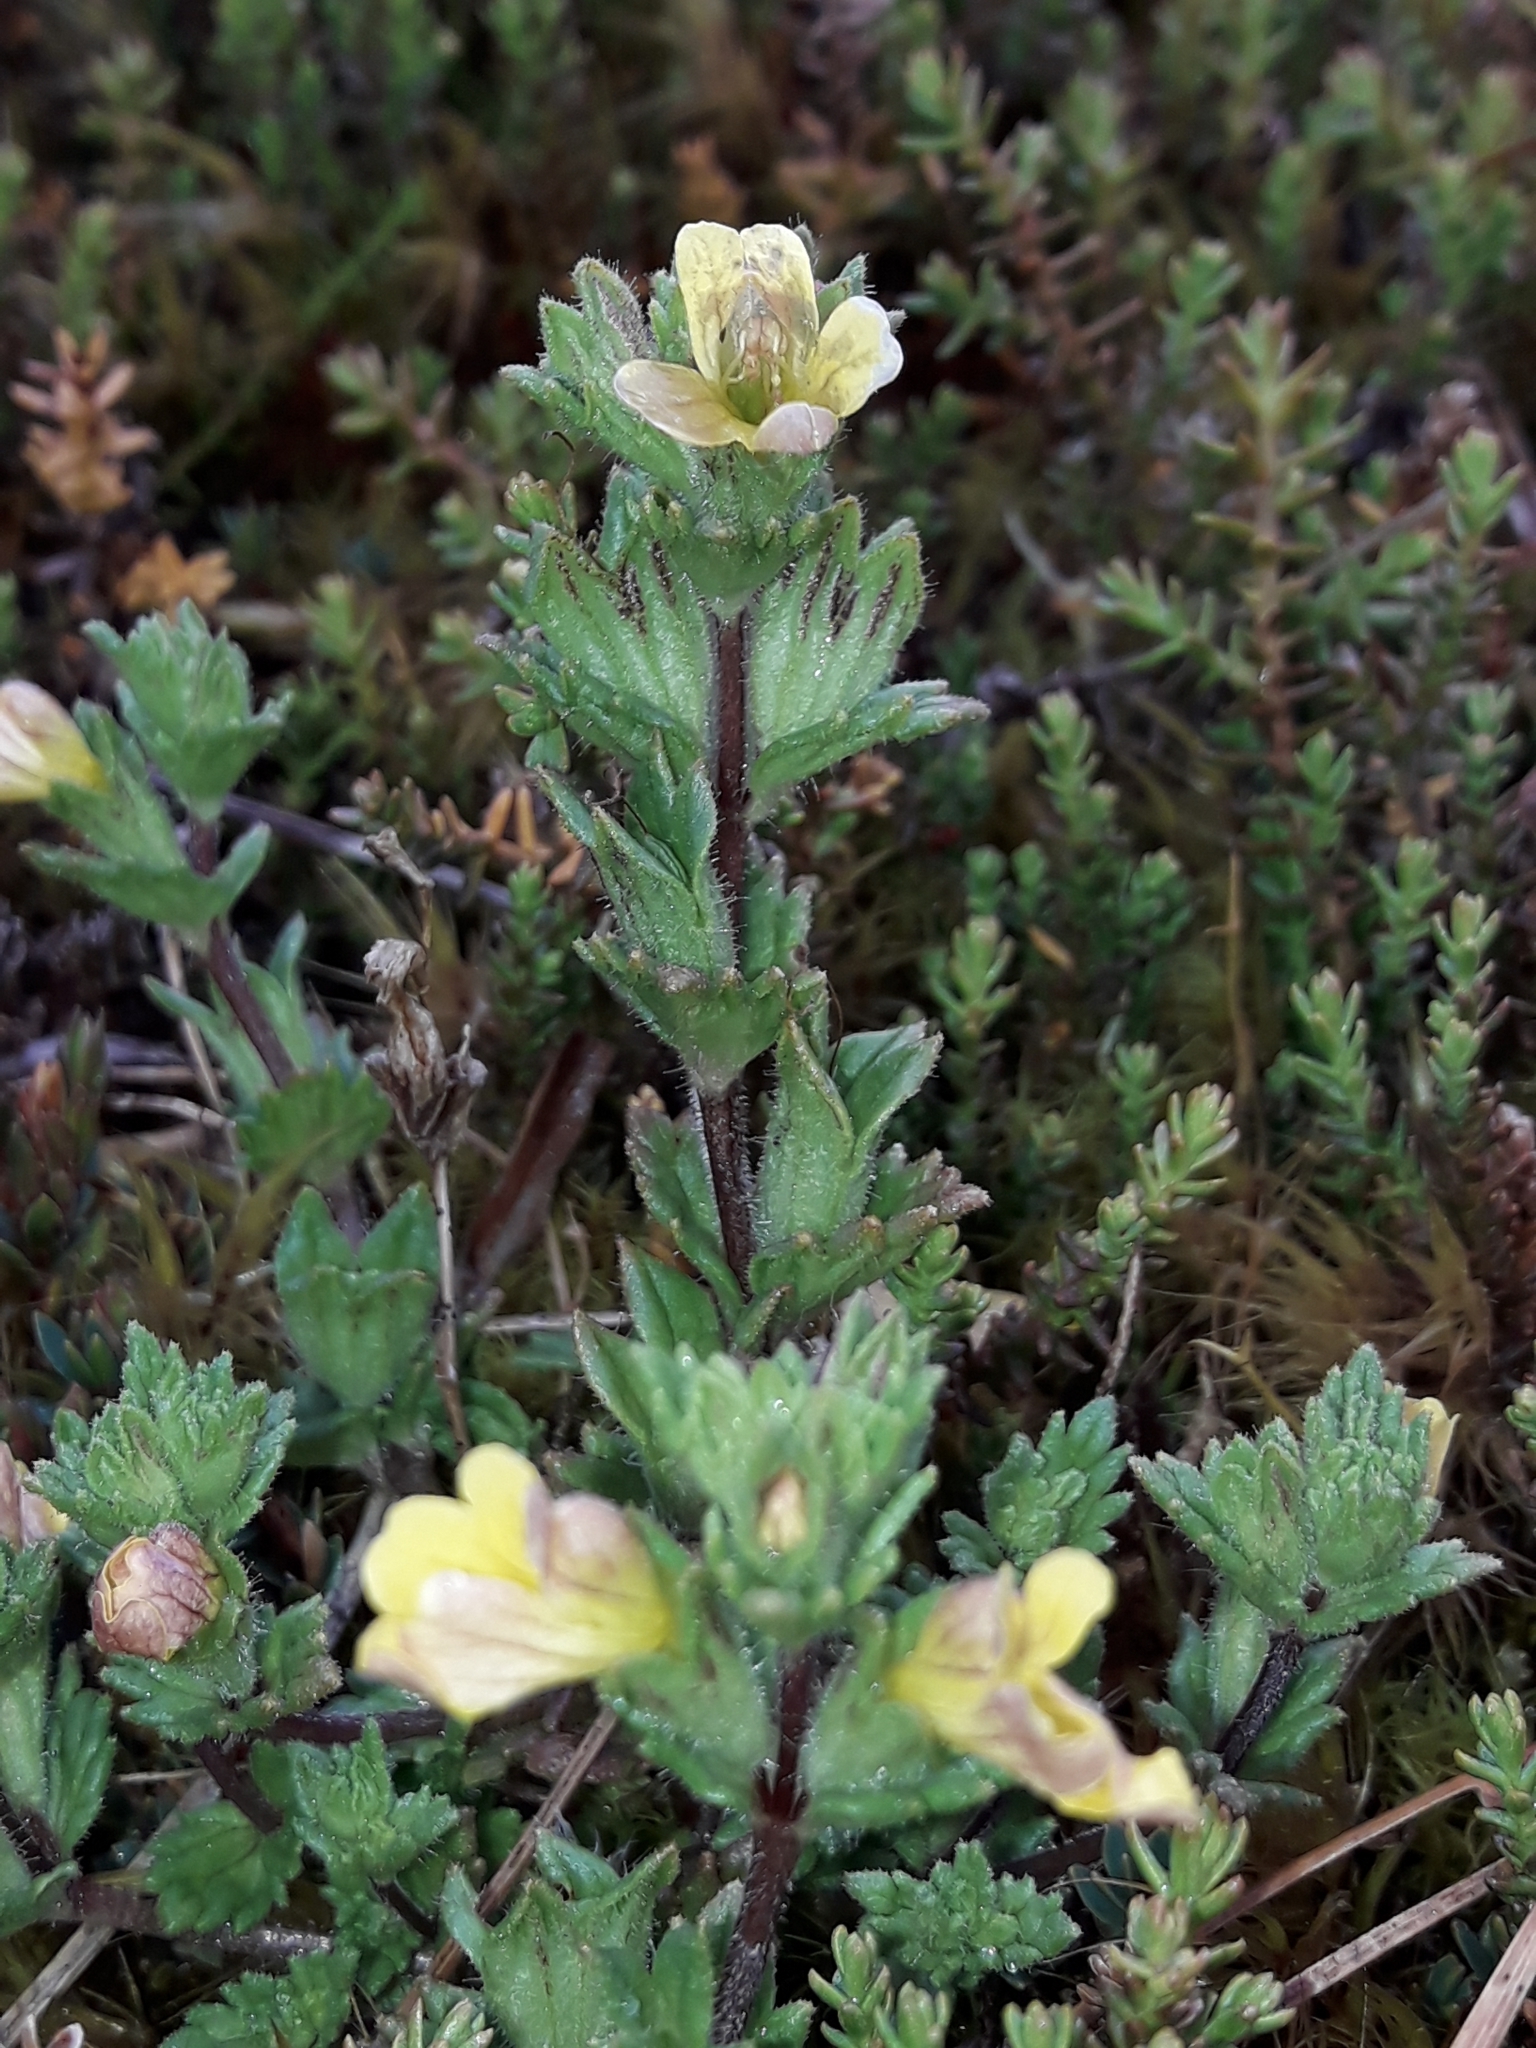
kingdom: Plantae
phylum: Tracheophyta
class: Magnoliopsida
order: Lamiales
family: Orobanchaceae
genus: Euphrasia
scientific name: Euphrasia cockayneana
